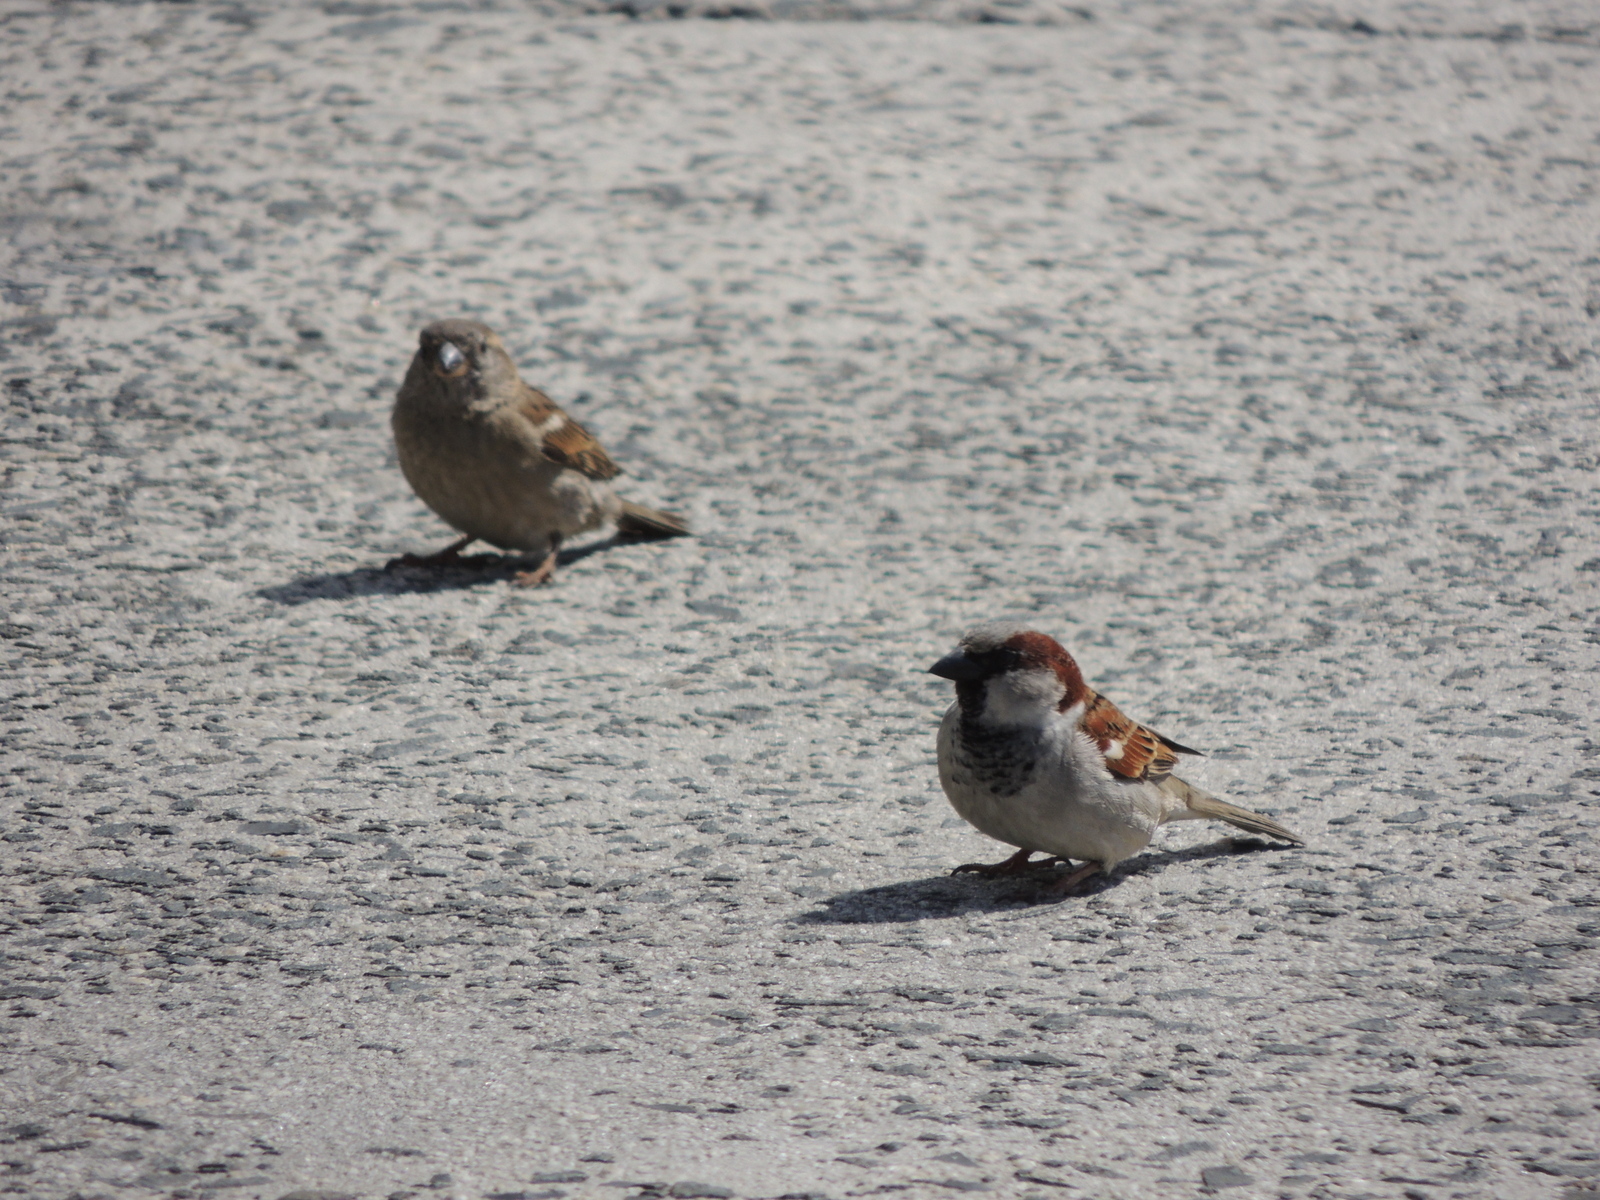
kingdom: Animalia
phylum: Chordata
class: Aves
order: Passeriformes
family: Passeridae
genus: Passer
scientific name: Passer domesticus
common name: House sparrow
